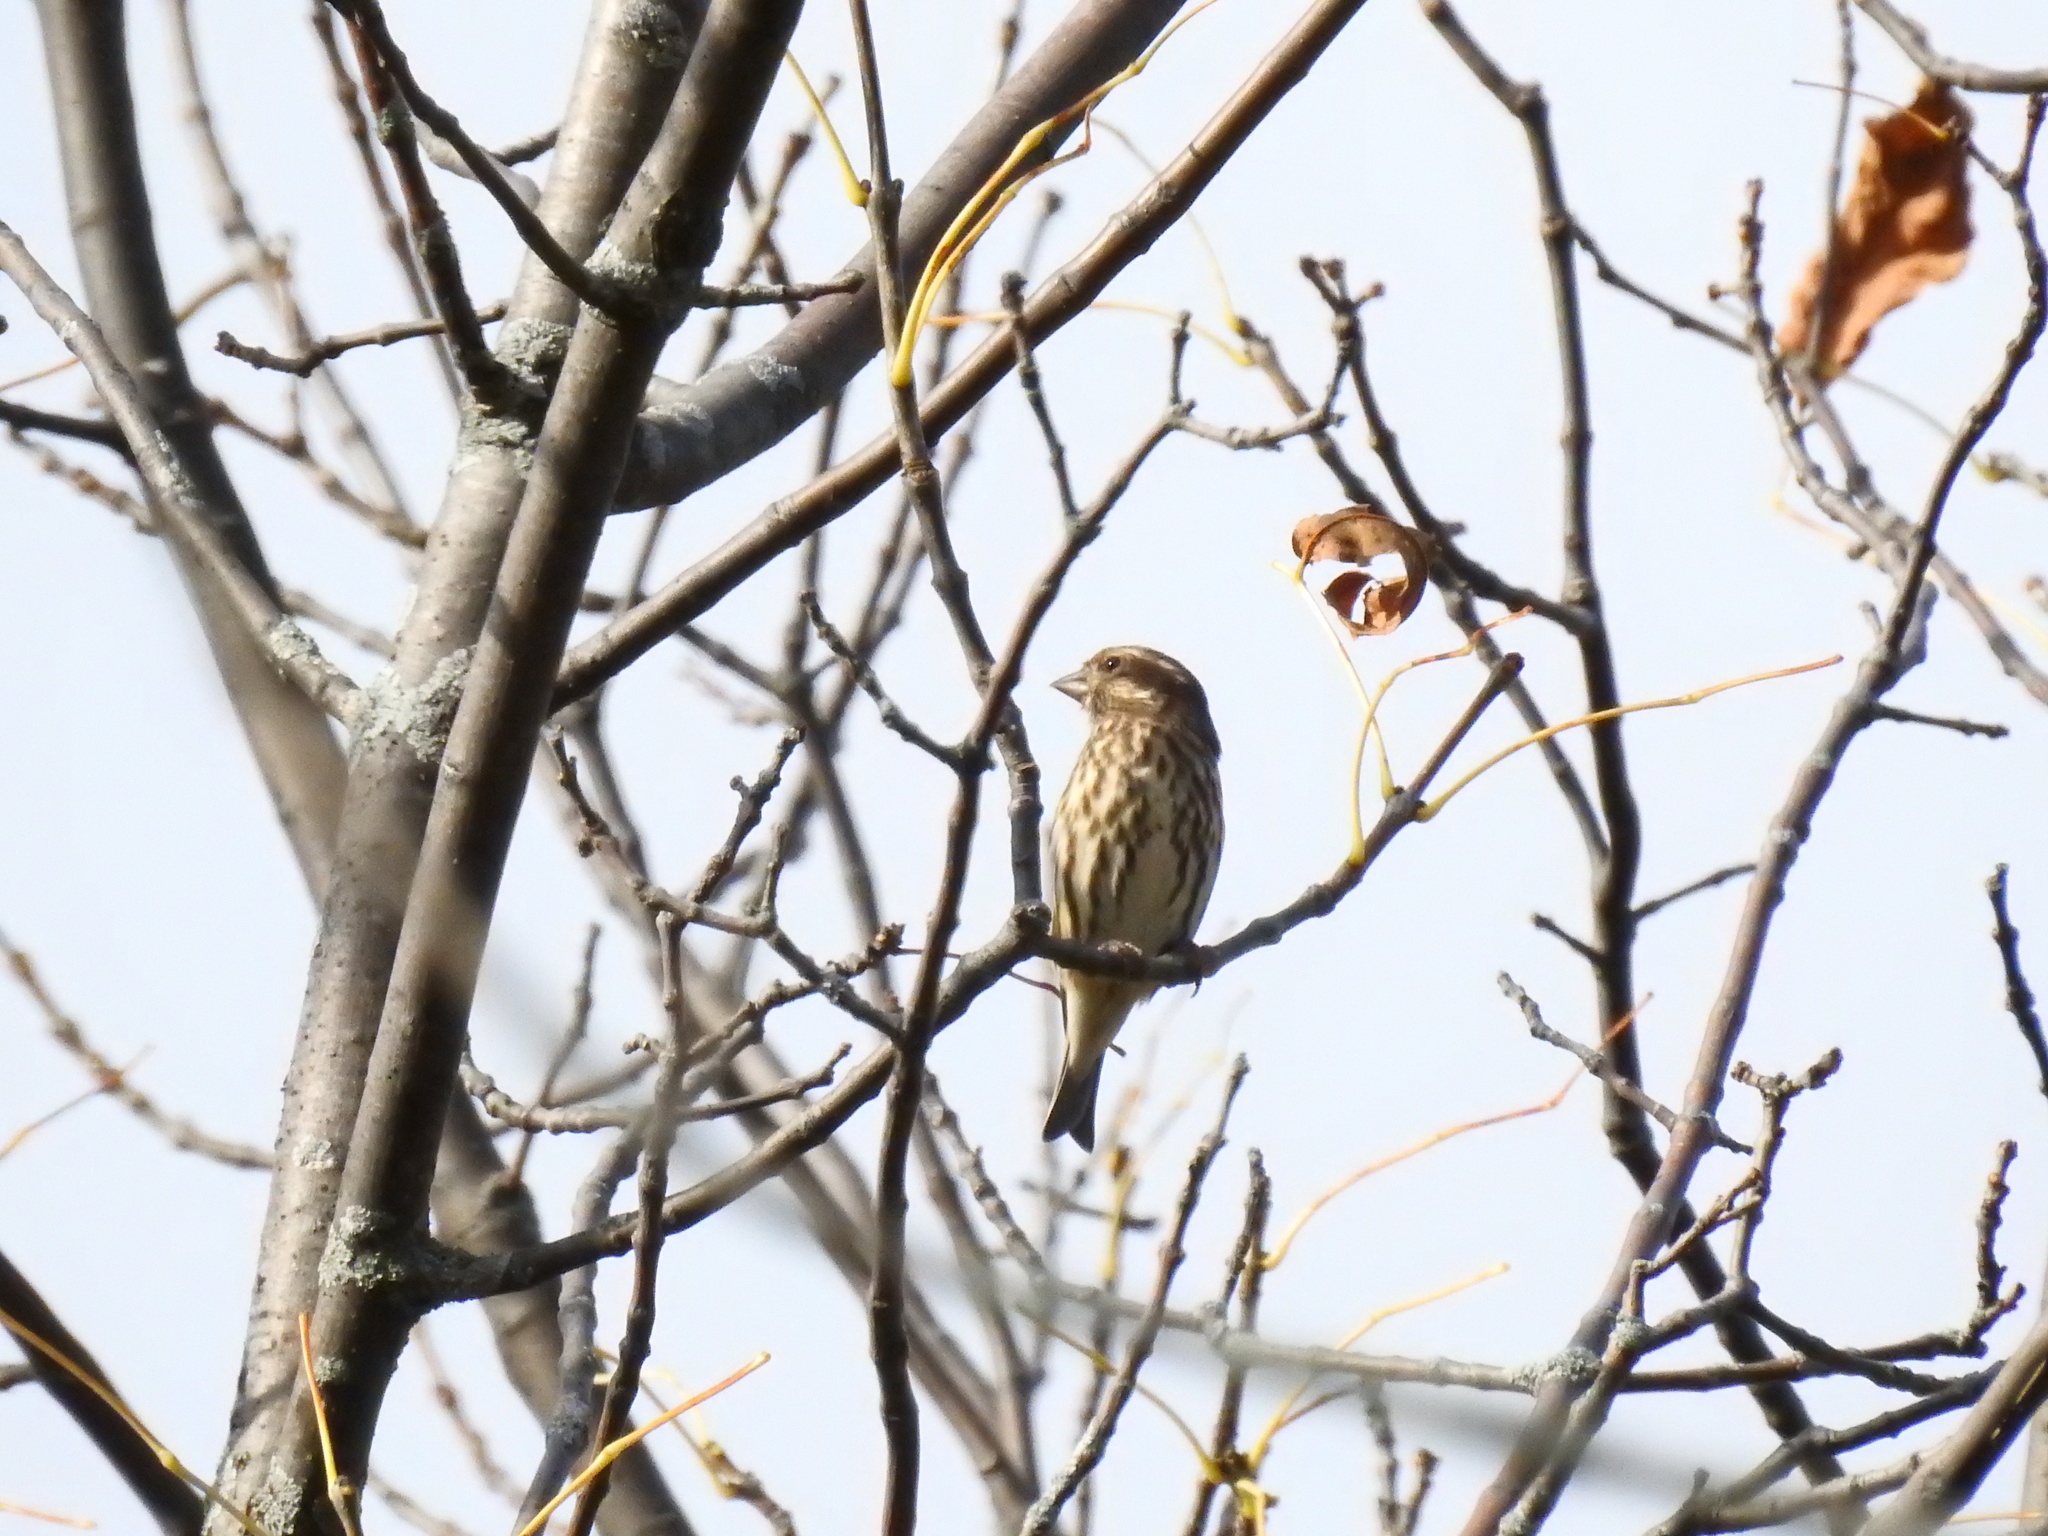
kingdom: Animalia
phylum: Chordata
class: Aves
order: Passeriformes
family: Fringillidae
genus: Haemorhous
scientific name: Haemorhous purpureus
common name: Purple finch
